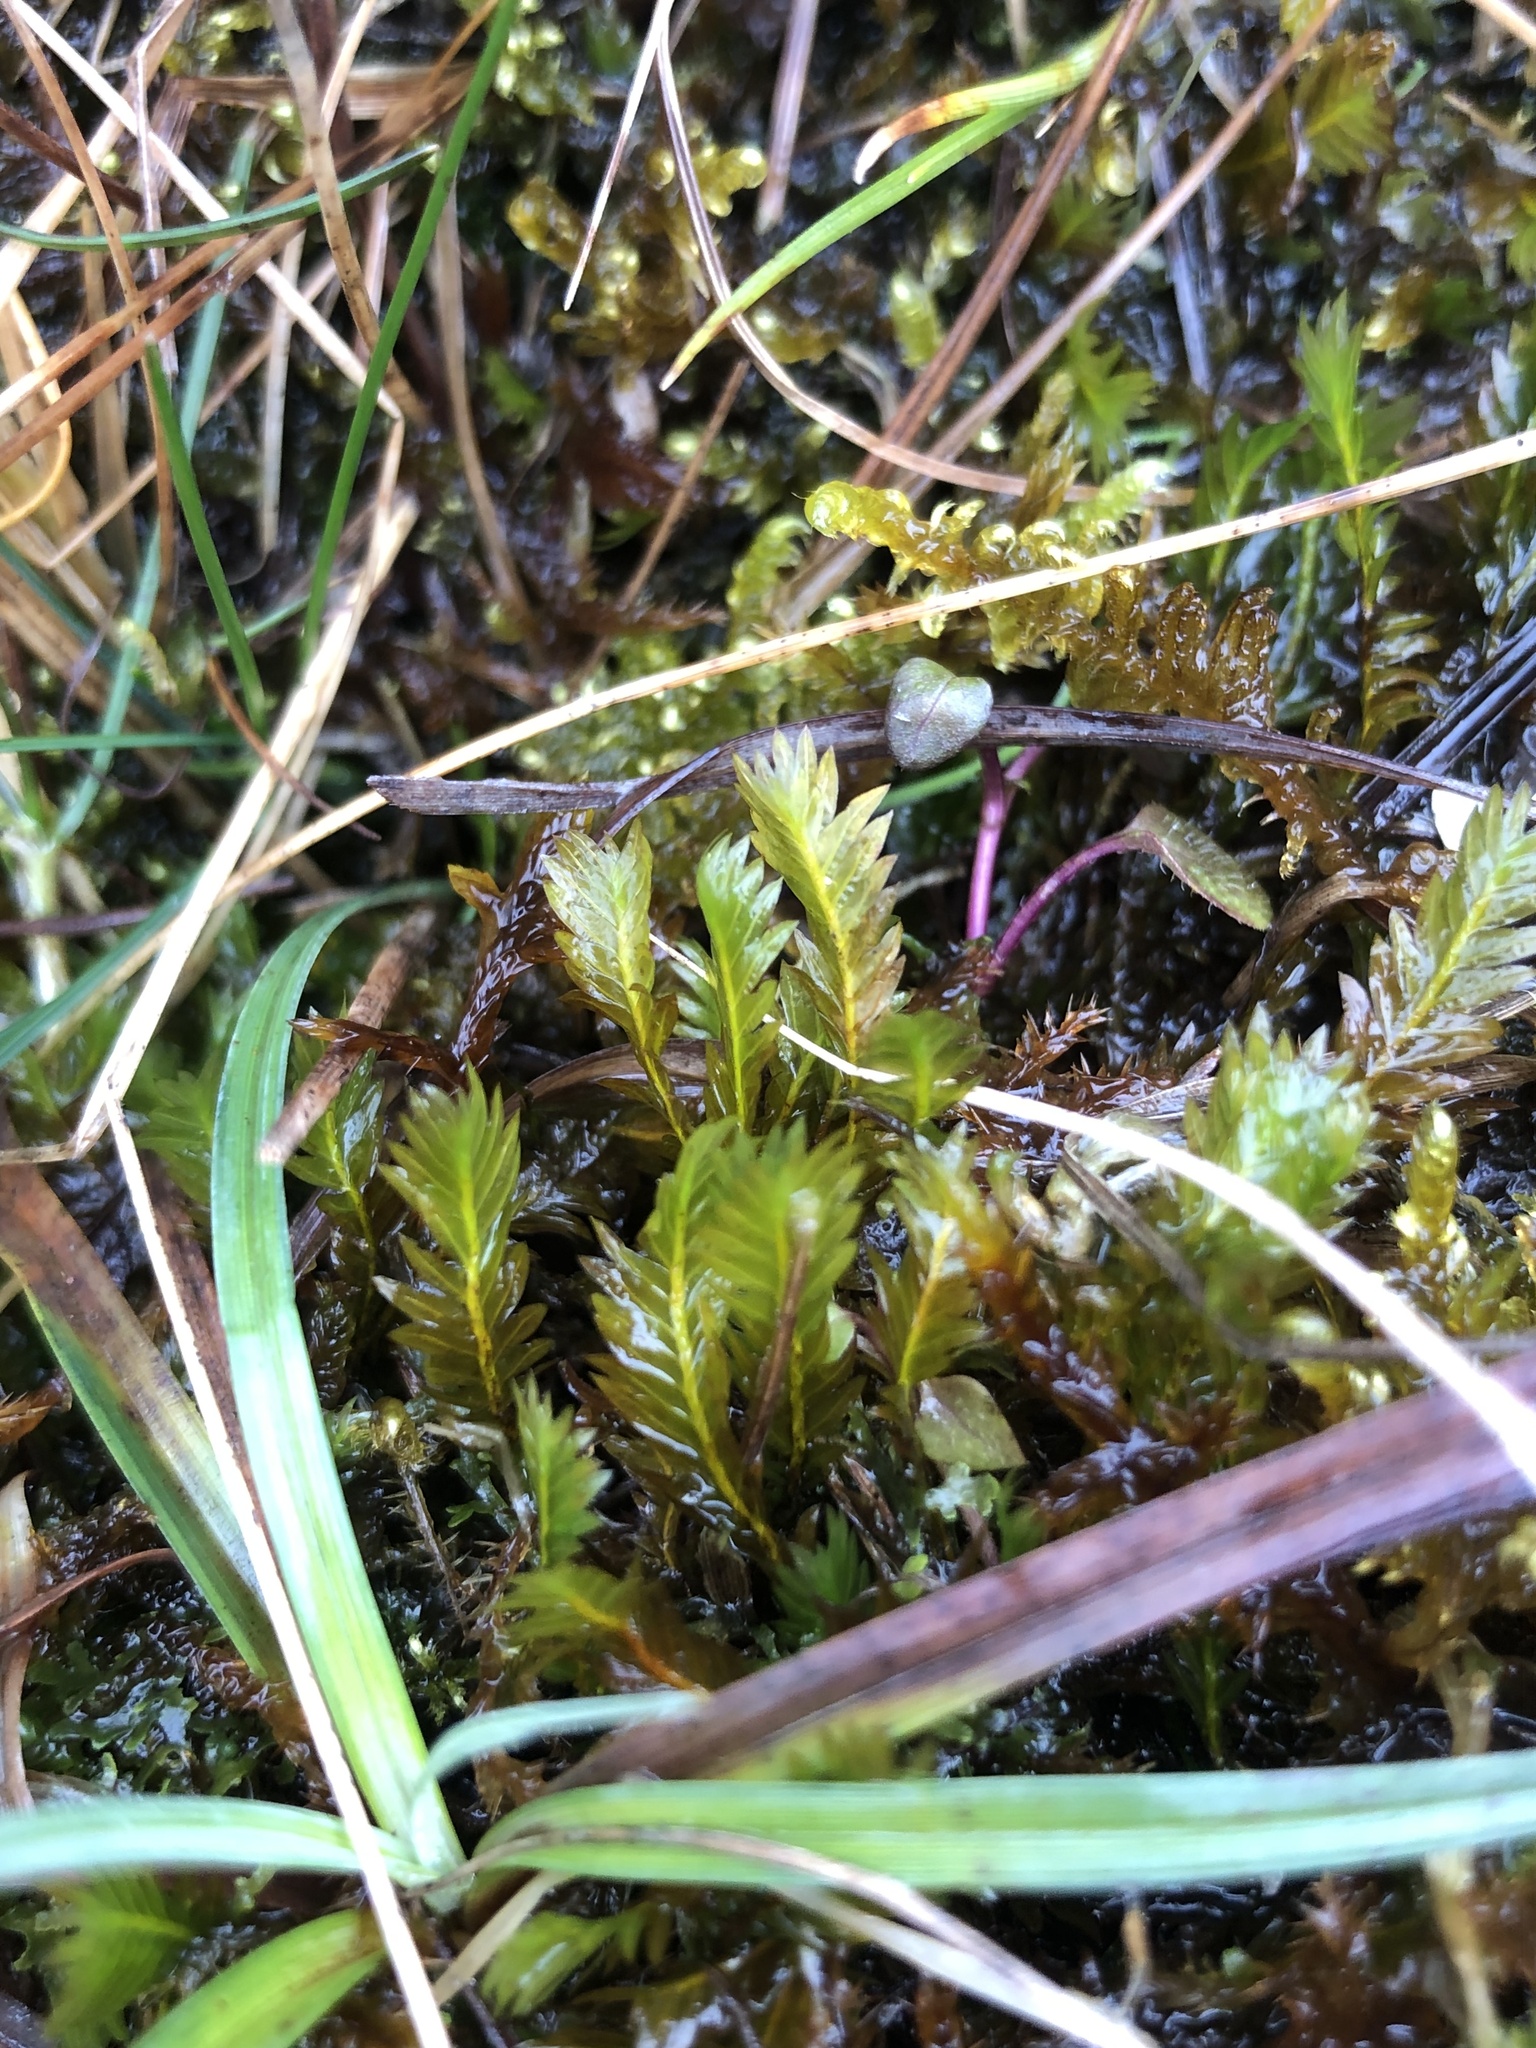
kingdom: Plantae
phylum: Bryophyta
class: Bryopsida
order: Dicranales
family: Fissidentaceae
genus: Fissidens
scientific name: Fissidens adianthoides
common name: Maidenhair pocket moss
